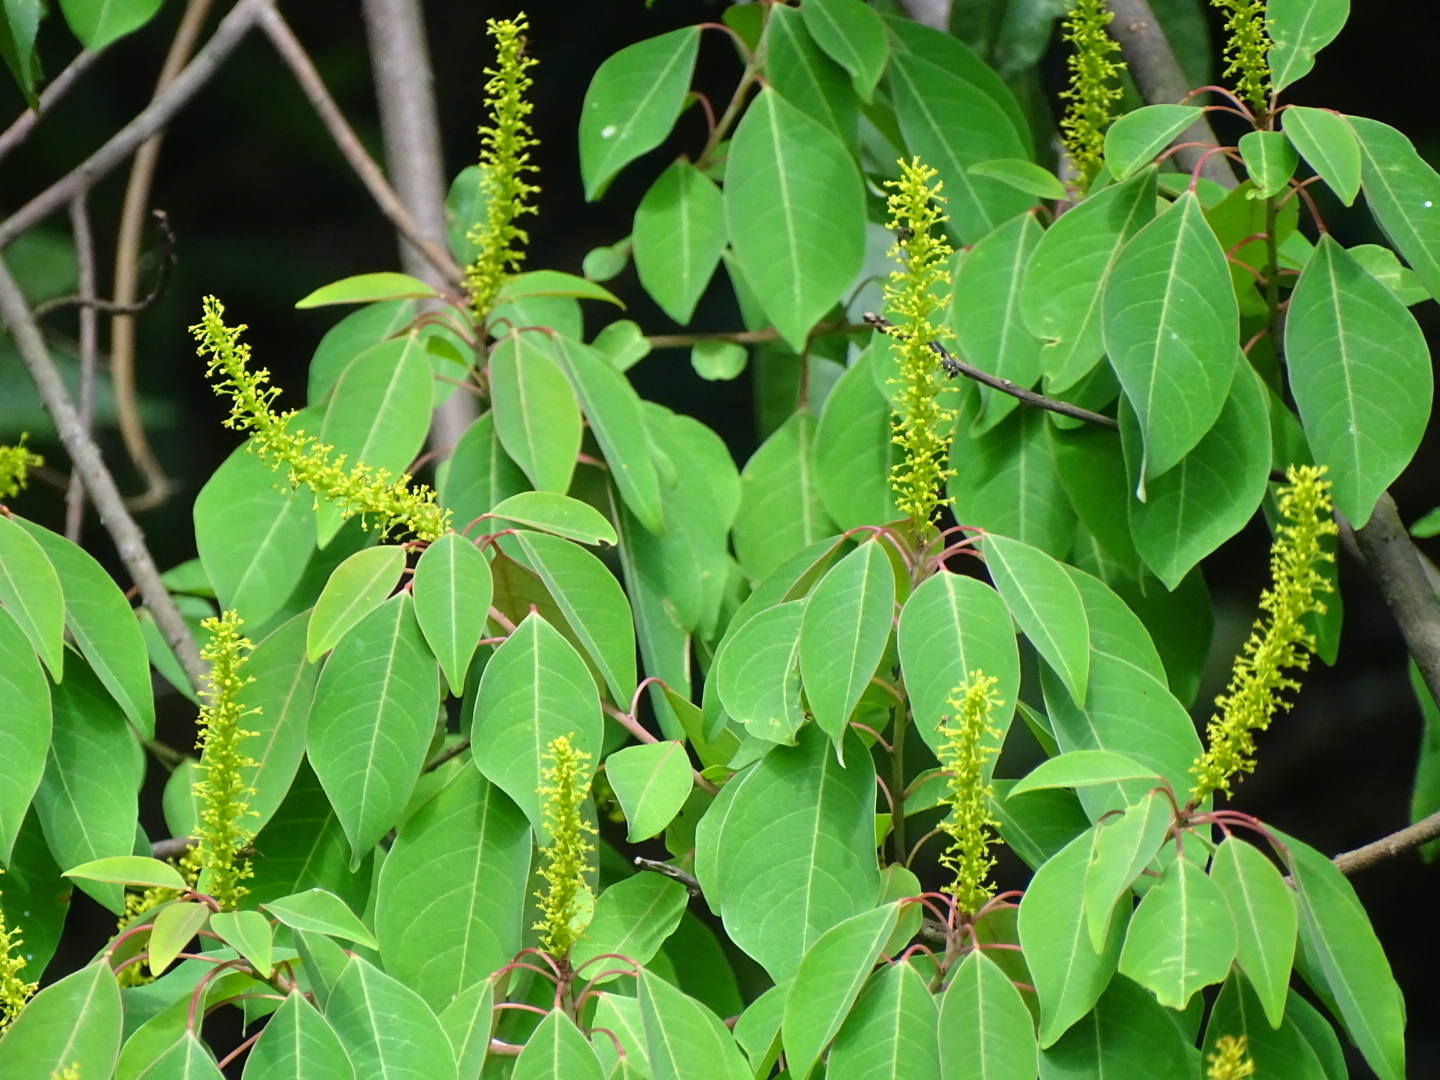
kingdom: Plantae
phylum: Tracheophyta
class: Magnoliopsida
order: Malpighiales
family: Euphorbiaceae
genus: Triadica
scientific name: Triadica cochinchinensis
